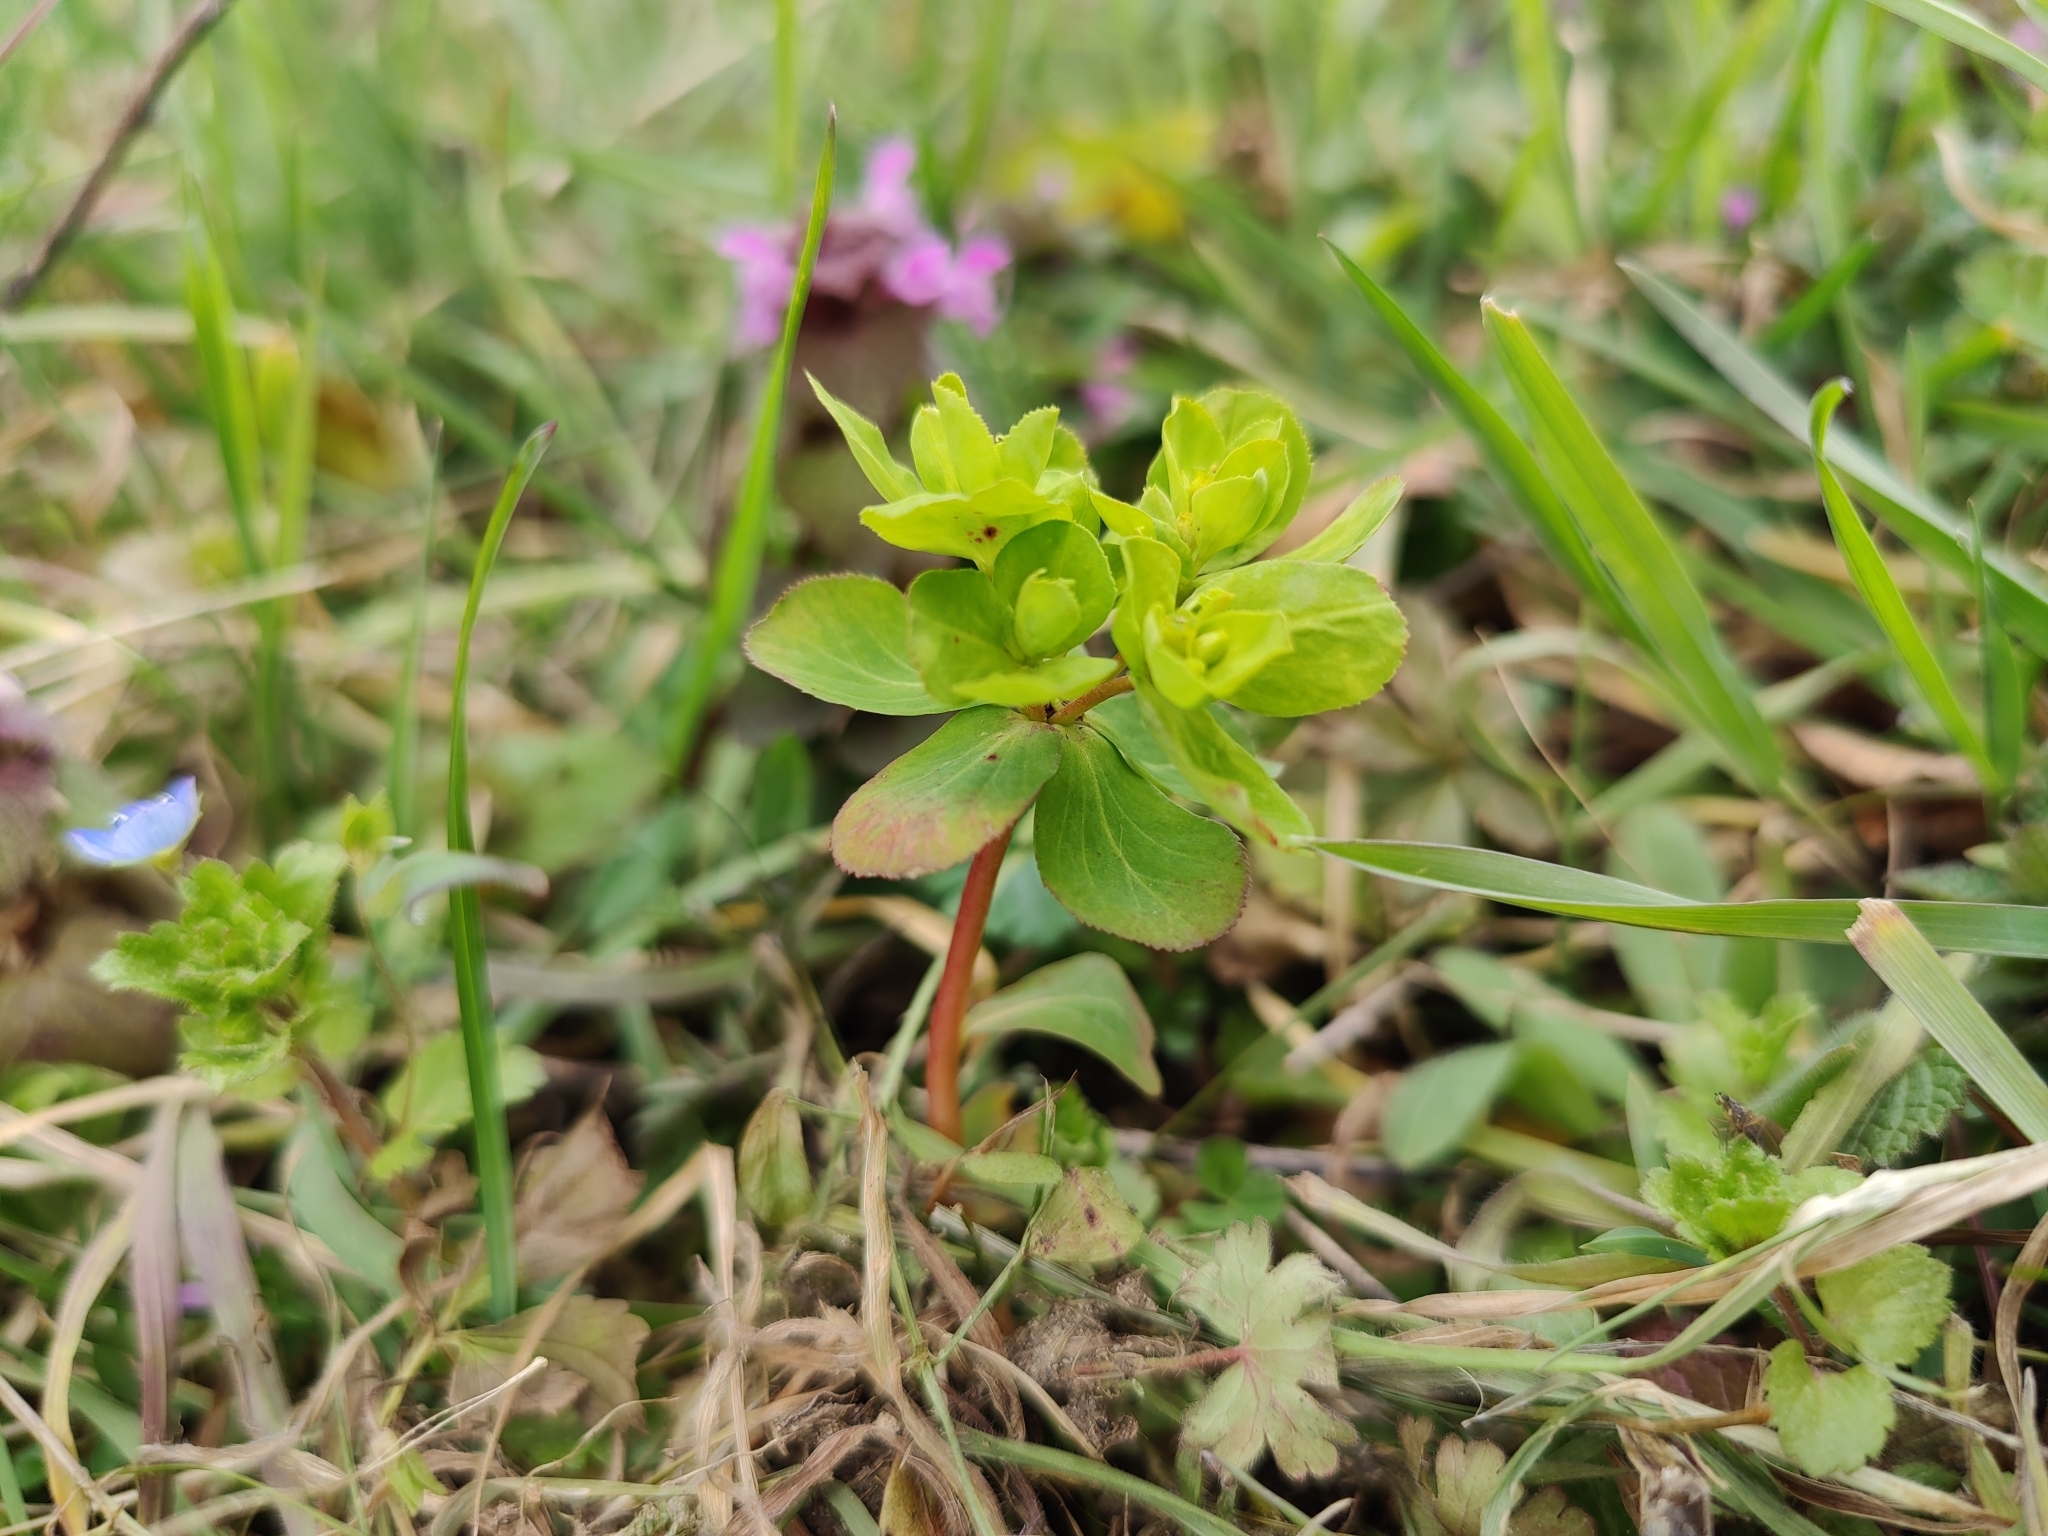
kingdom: Plantae
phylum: Tracheophyta
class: Magnoliopsida
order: Malpighiales
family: Euphorbiaceae
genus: Euphorbia
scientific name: Euphorbia helioscopia
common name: Sun spurge
